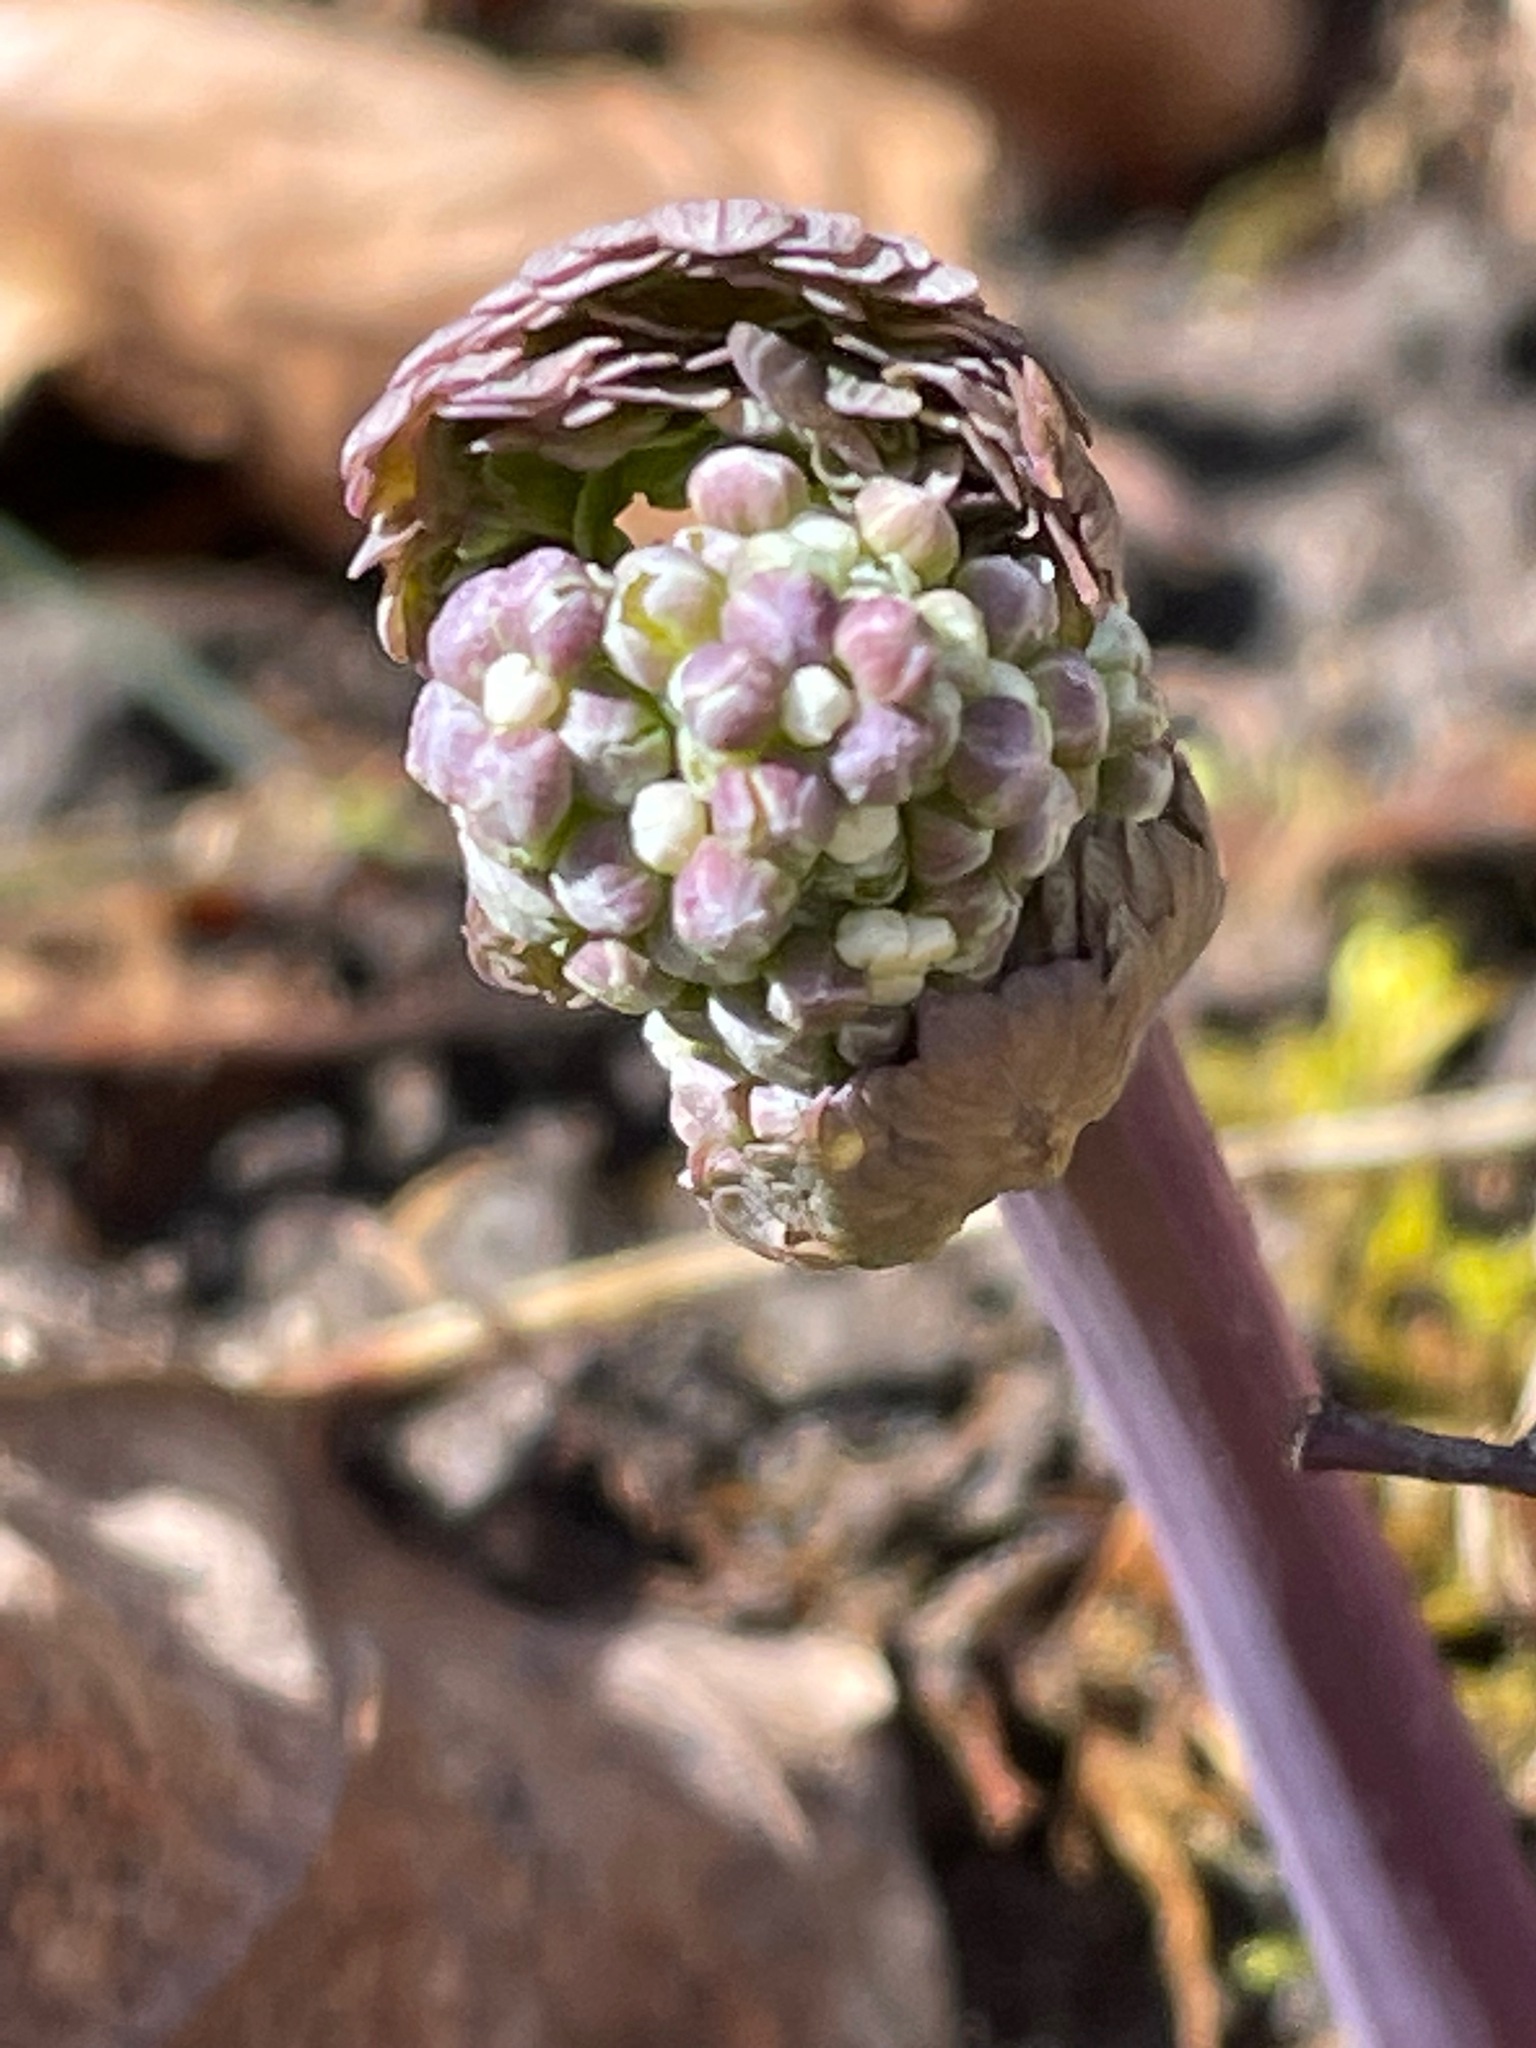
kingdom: Plantae
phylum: Tracheophyta
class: Magnoliopsida
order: Ranunculales
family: Ranunculaceae
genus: Thalictrum
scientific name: Thalictrum dioicum
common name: Early meadow-rue
